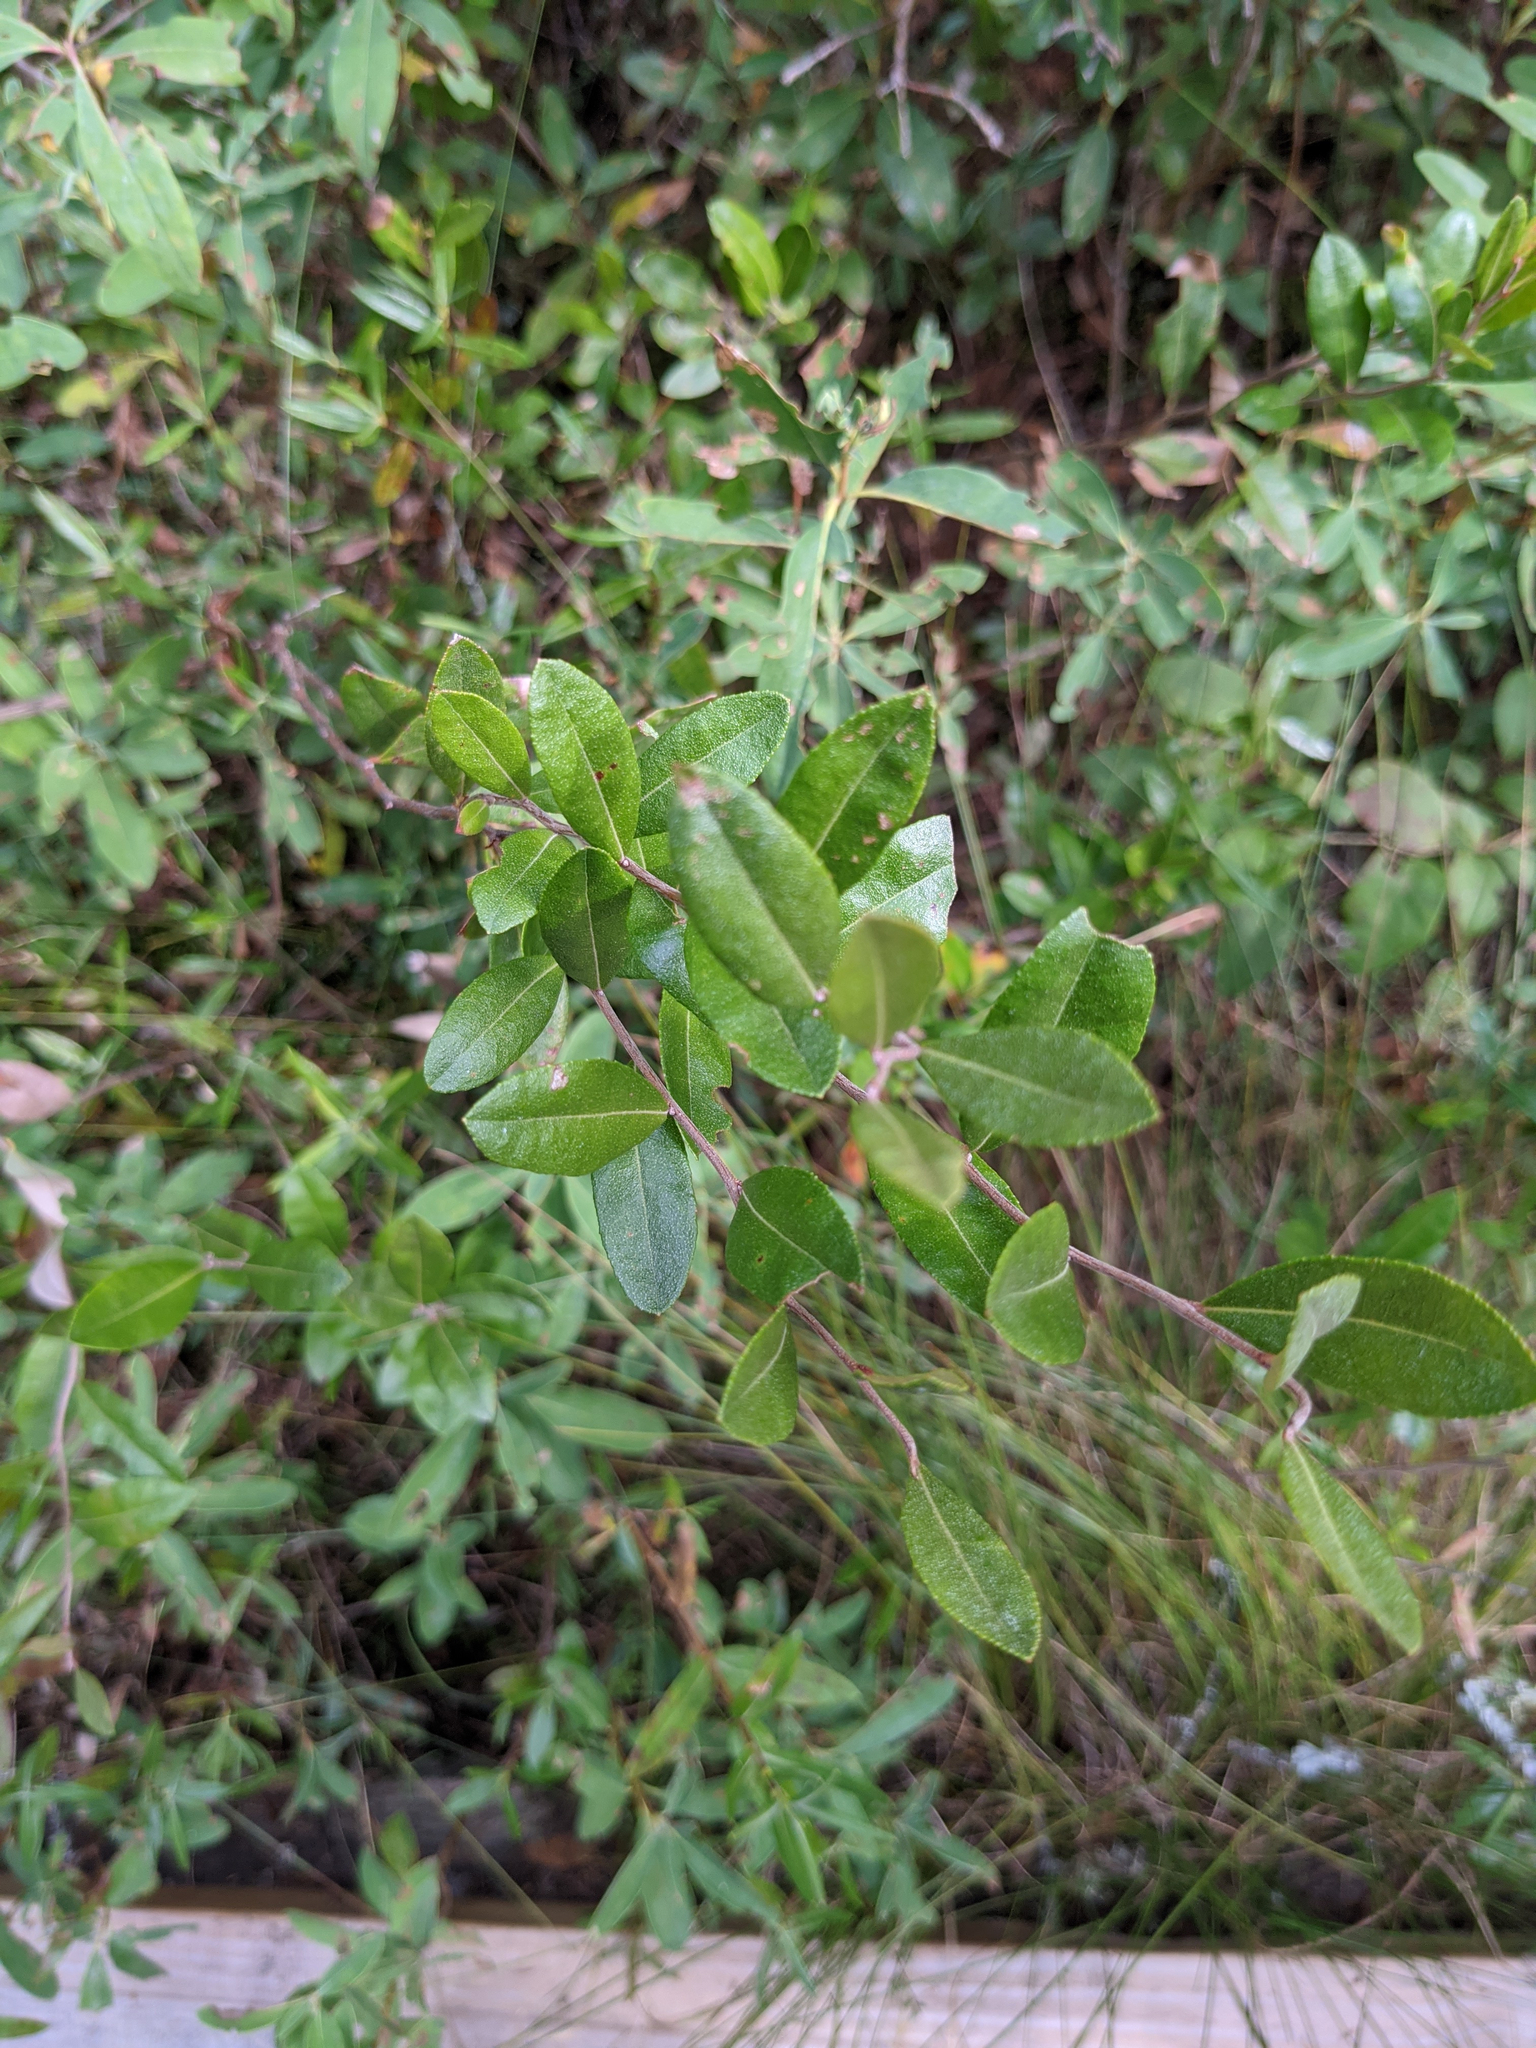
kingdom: Plantae
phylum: Tracheophyta
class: Magnoliopsida
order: Ericales
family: Ericaceae
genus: Chamaedaphne
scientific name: Chamaedaphne calyculata
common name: Leatherleaf
